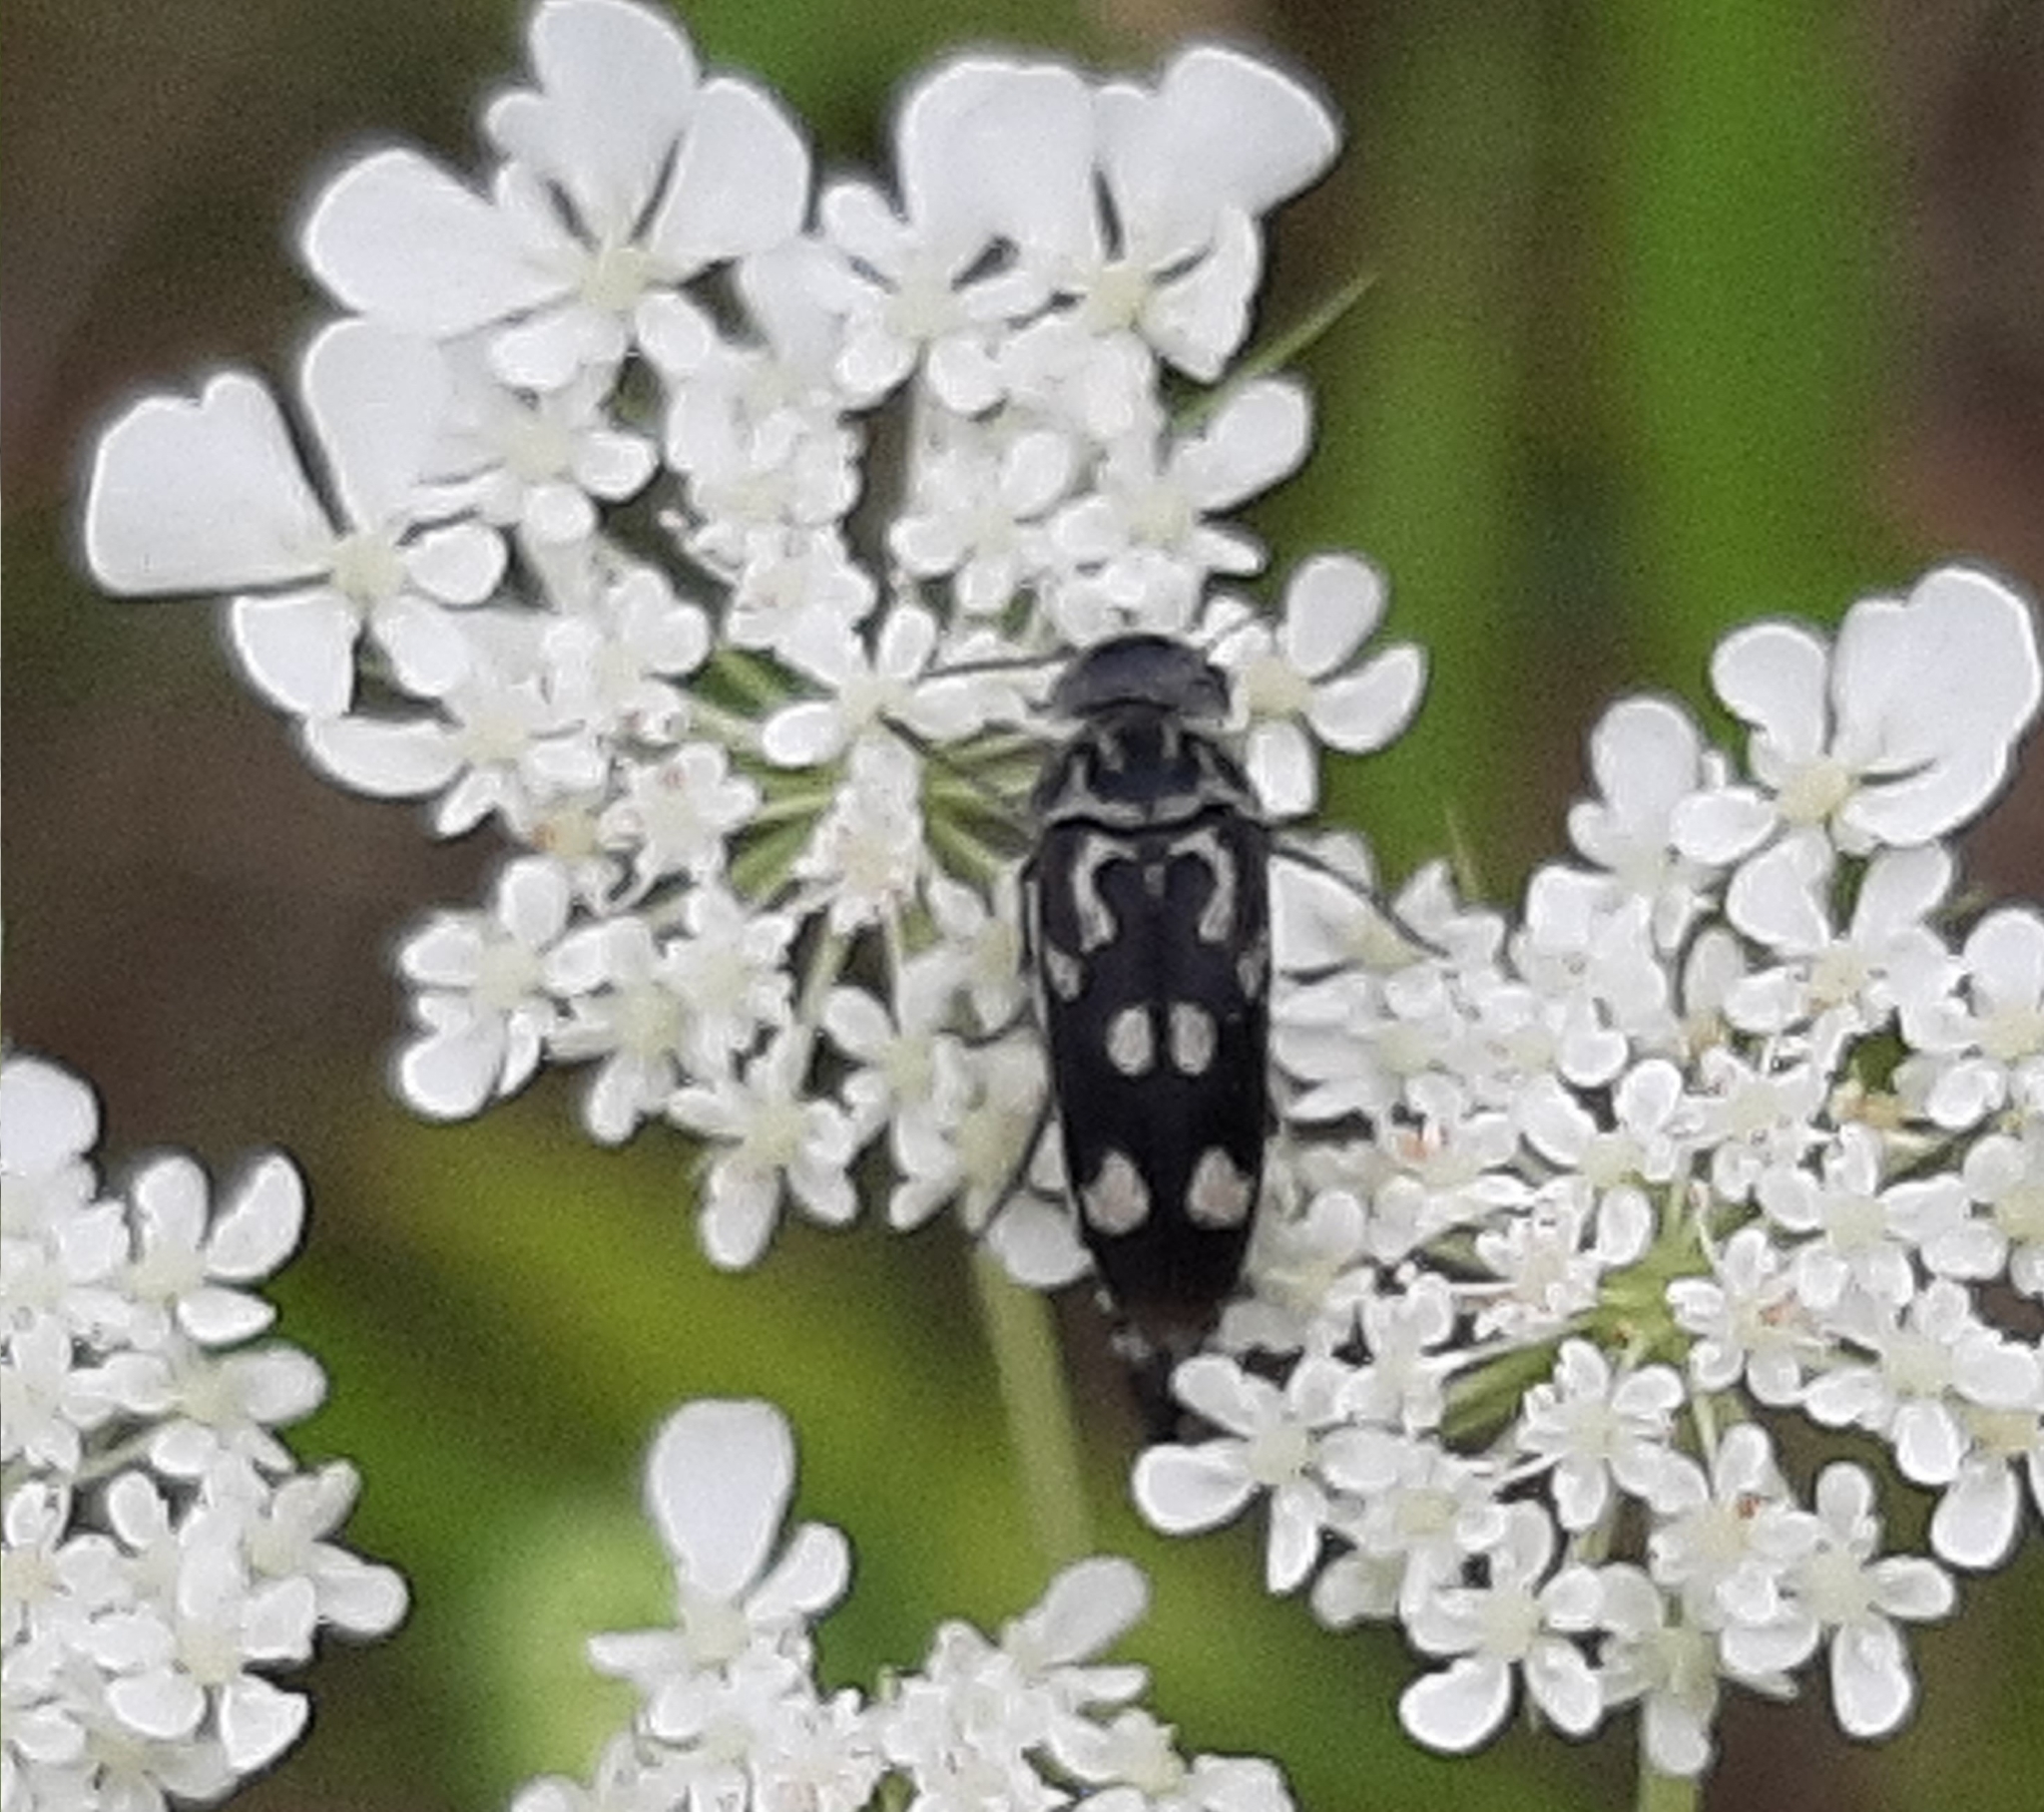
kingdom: Animalia
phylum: Arthropoda
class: Insecta
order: Coleoptera
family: Mordellidae
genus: Hoshihananomia
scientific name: Hoshihananomia octopunctata
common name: Eight-spotted tumbling flower beetle
